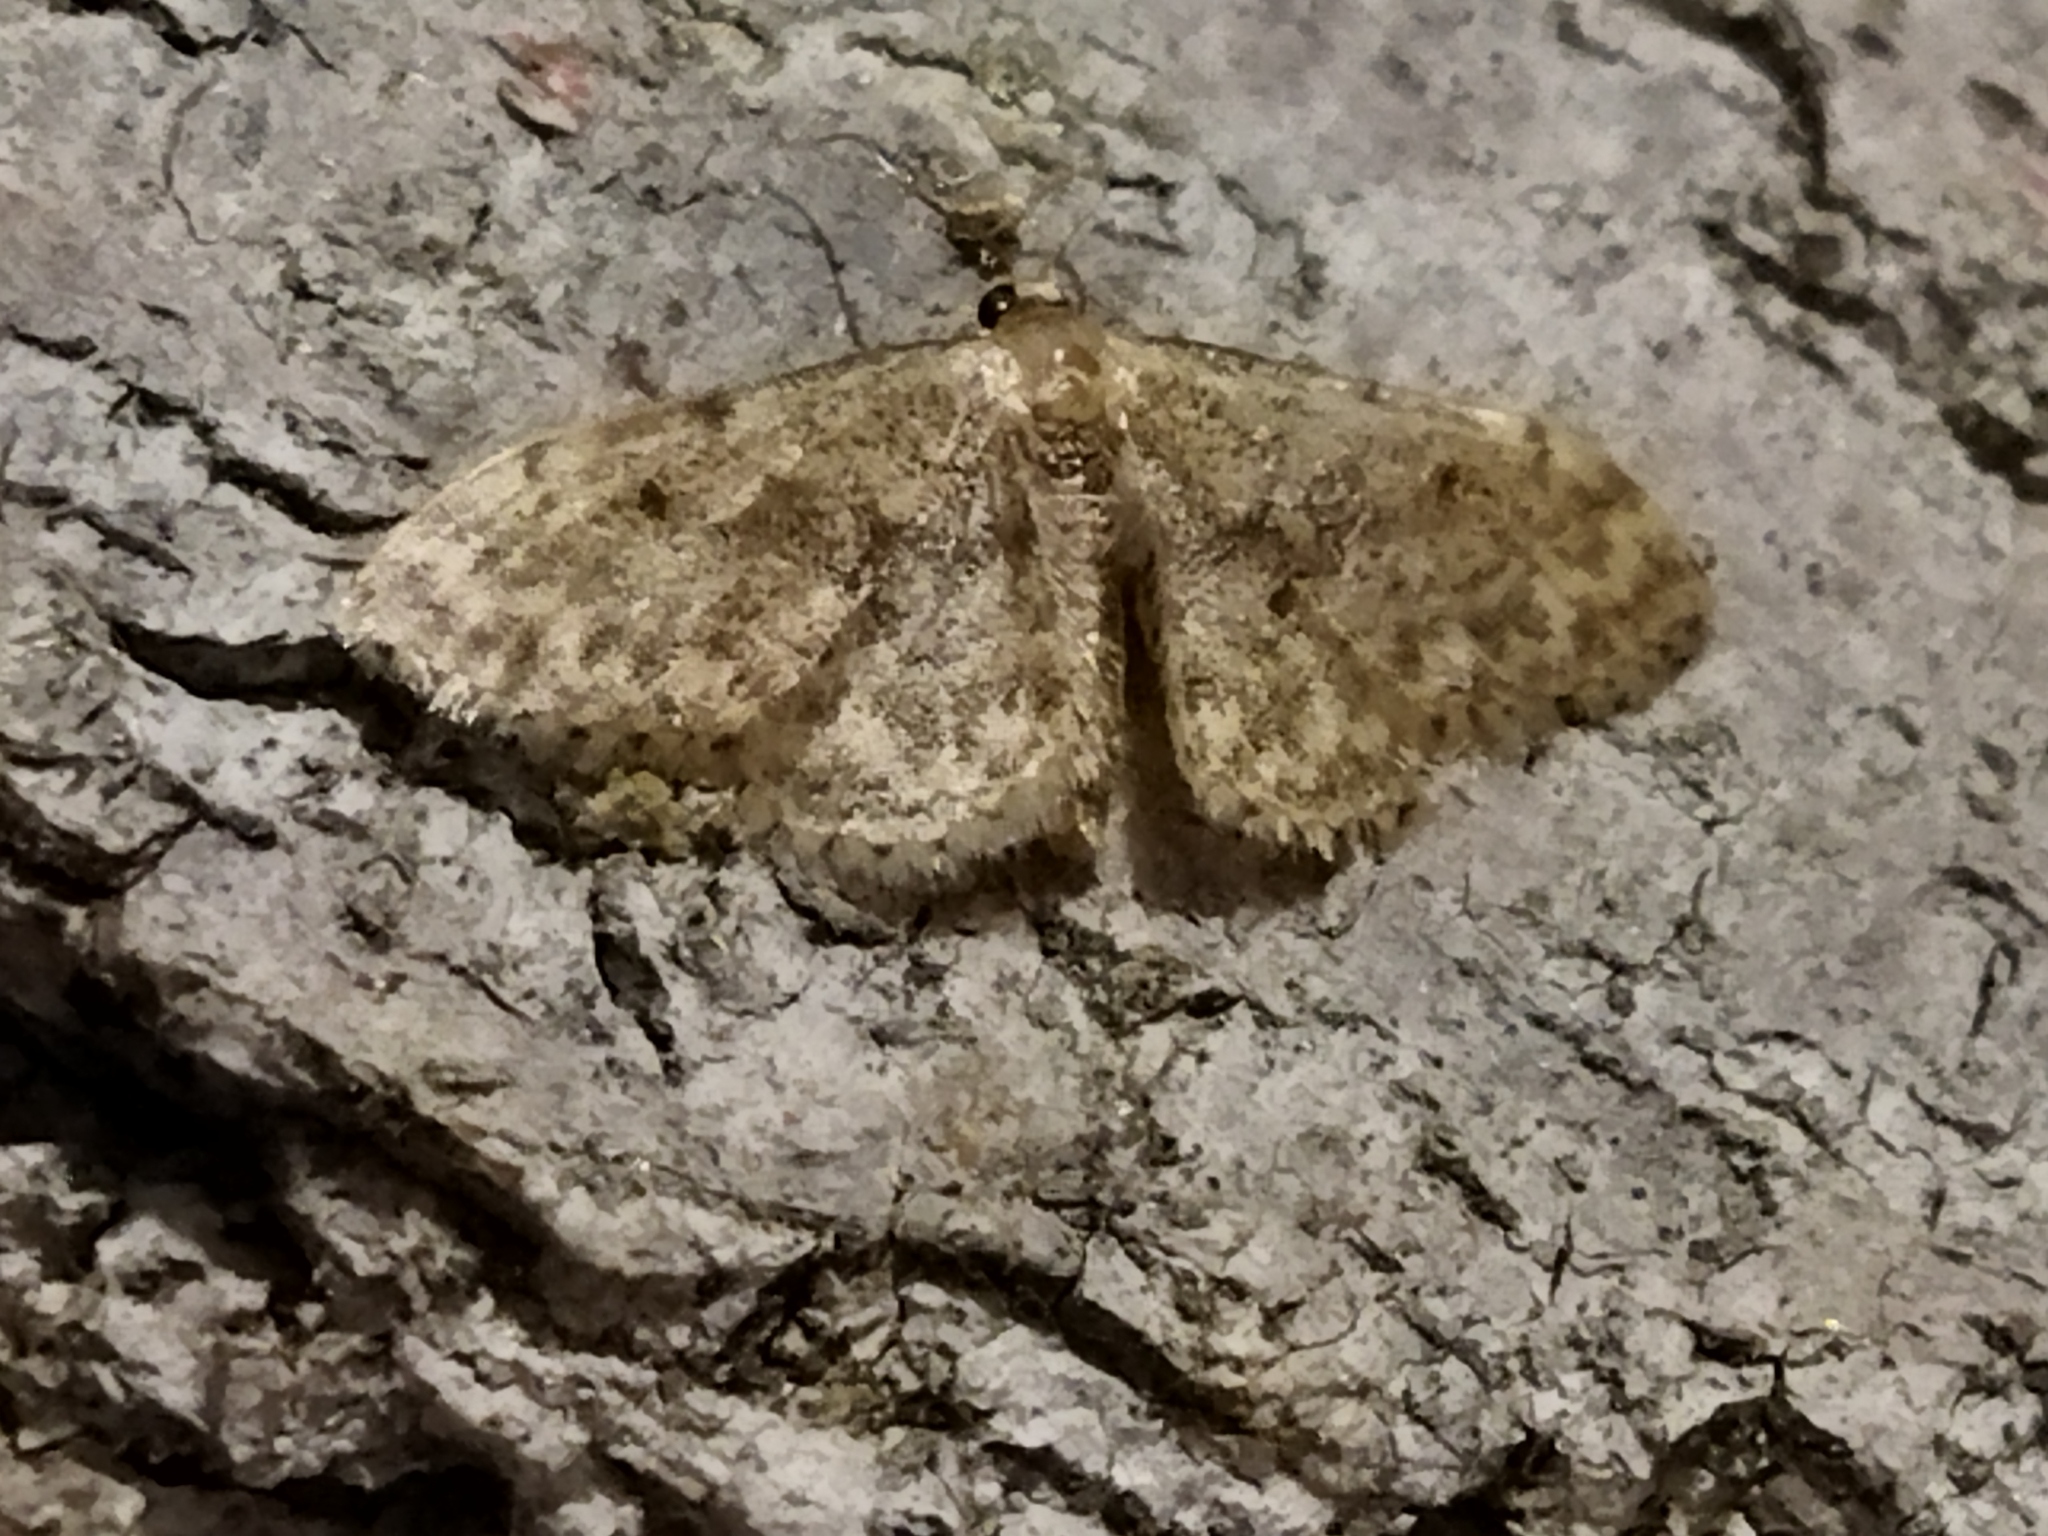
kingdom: Animalia
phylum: Arthropoda
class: Insecta
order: Lepidoptera
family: Geometridae
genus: Idaea
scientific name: Idaea inquinata
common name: Rusty wave
